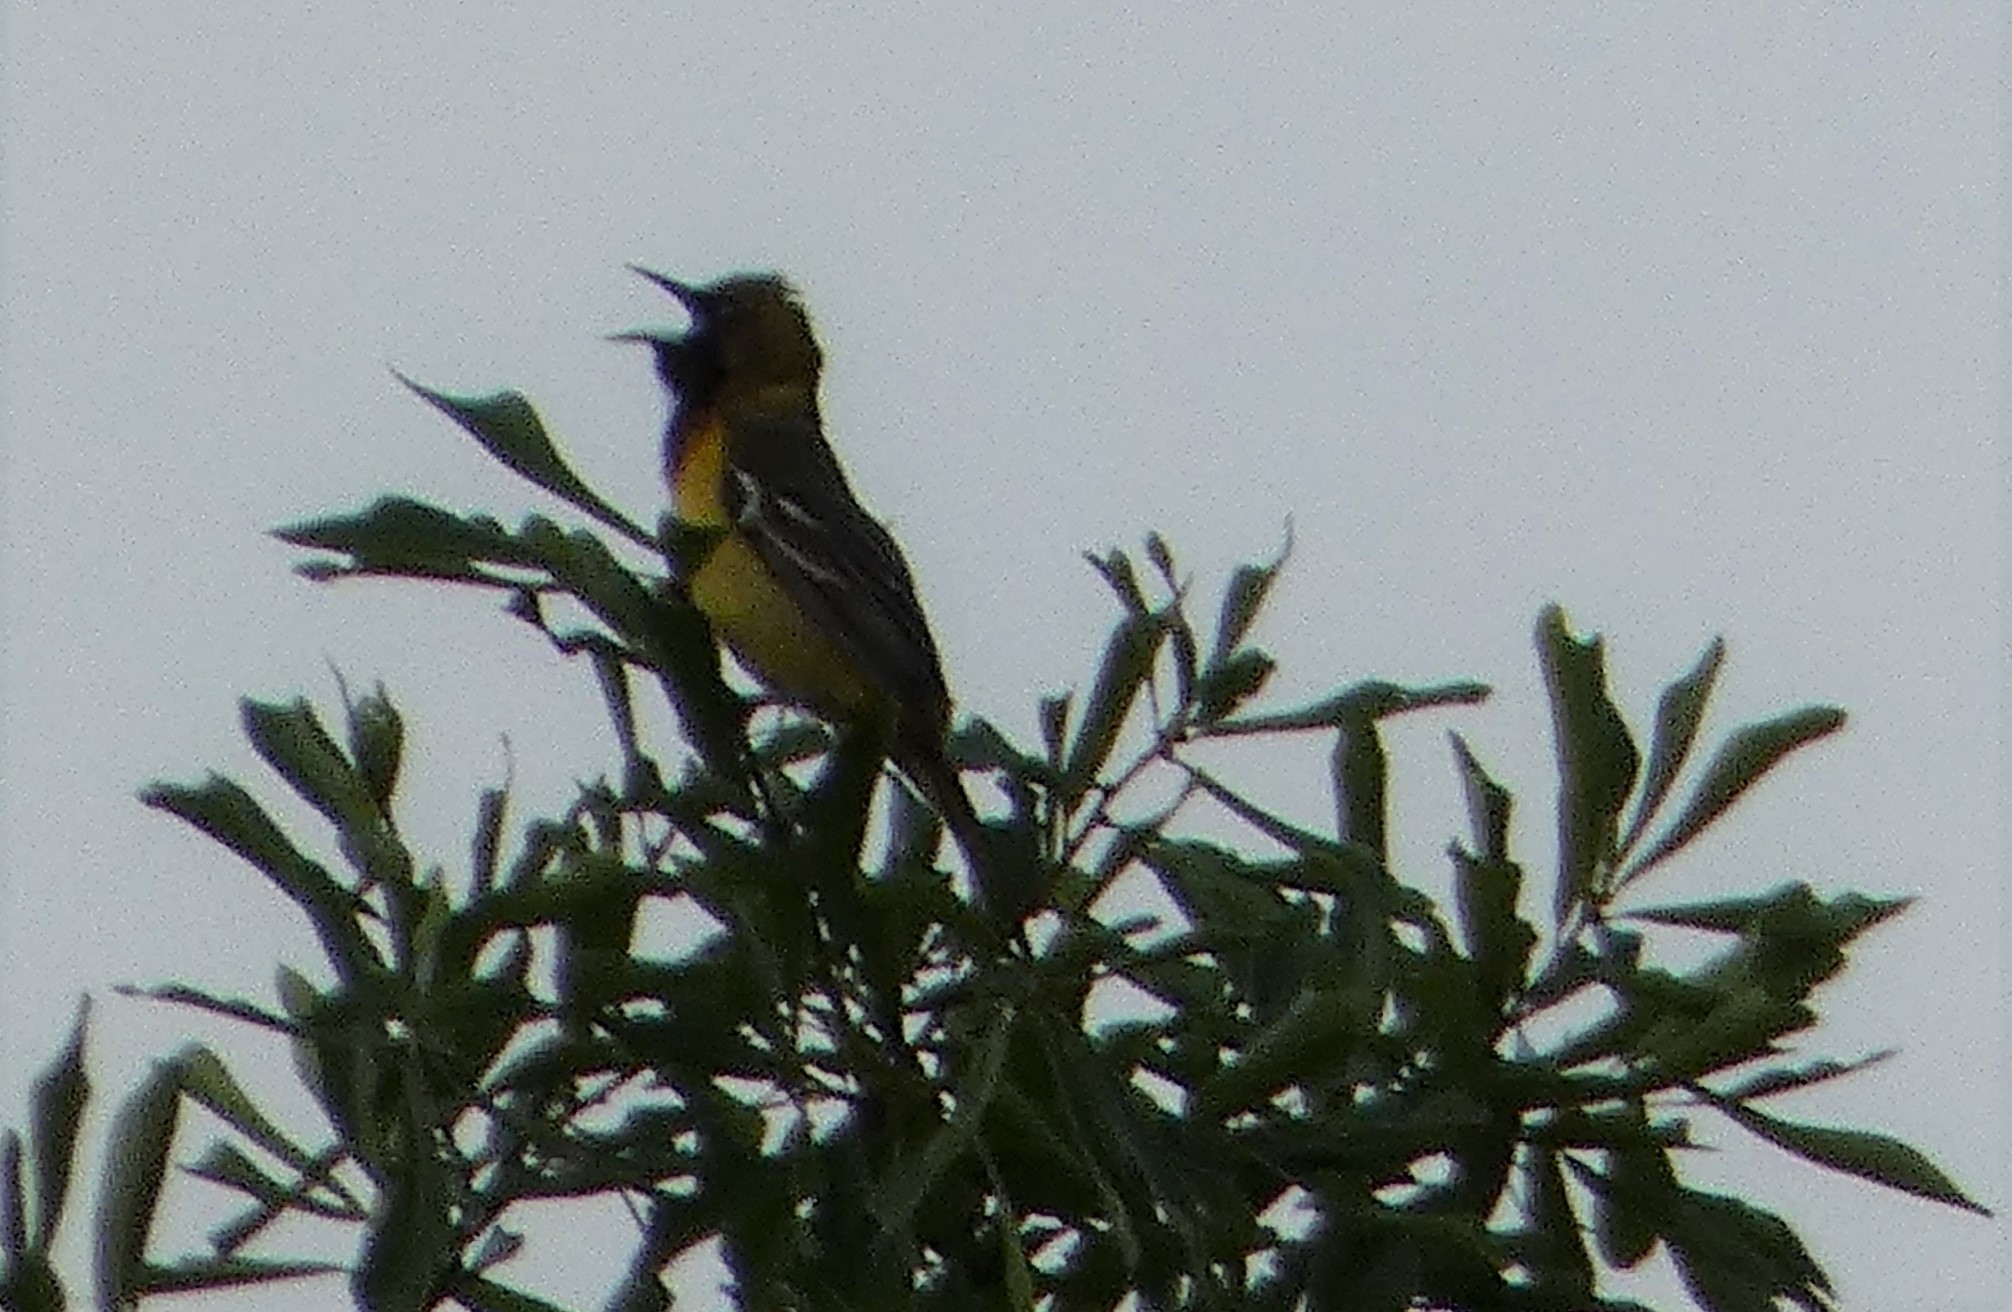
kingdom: Animalia
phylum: Chordata
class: Aves
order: Passeriformes
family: Icteridae
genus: Icterus
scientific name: Icterus spurius
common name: Orchard oriole
